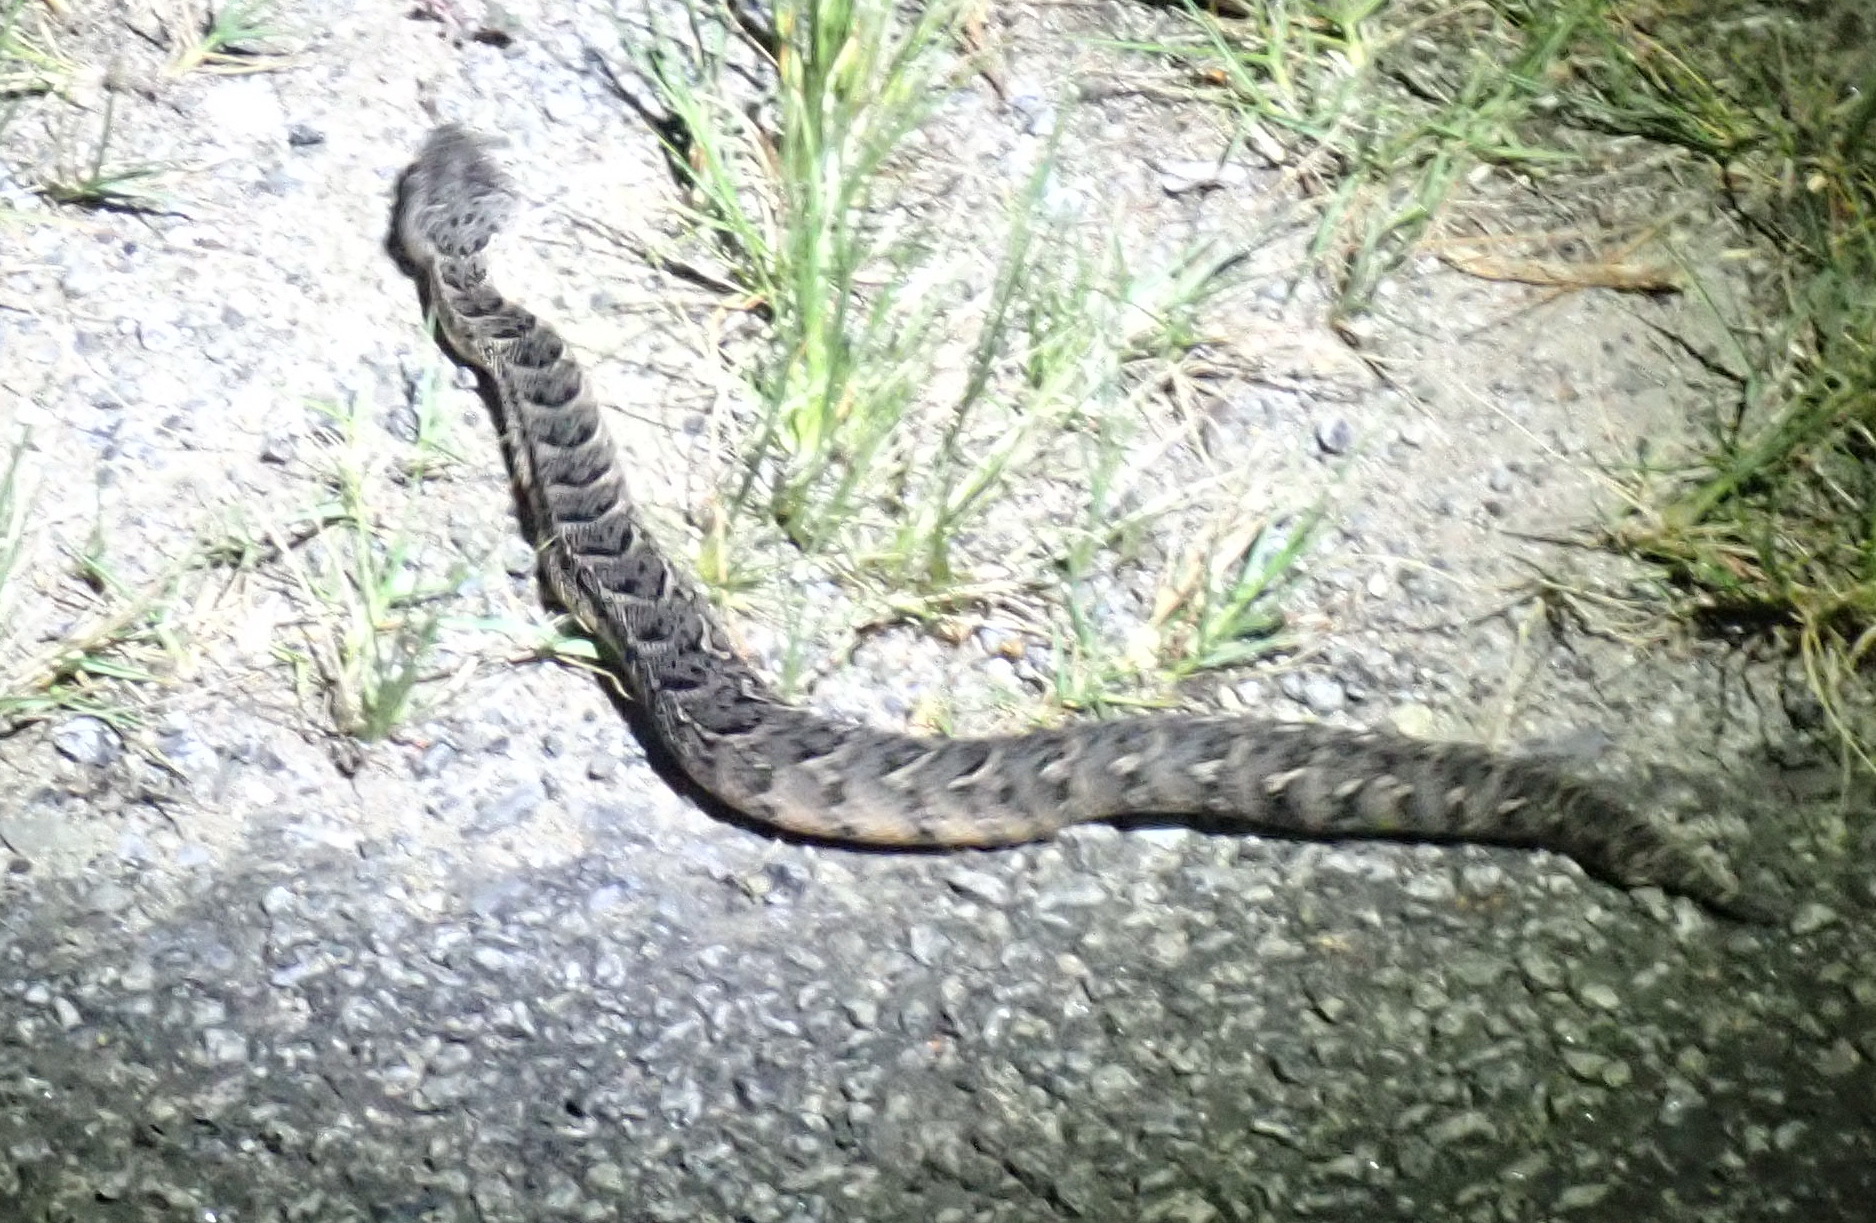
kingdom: Animalia
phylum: Chordata
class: Squamata
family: Viperidae
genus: Bitis
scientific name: Bitis arietans
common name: Puff adder
